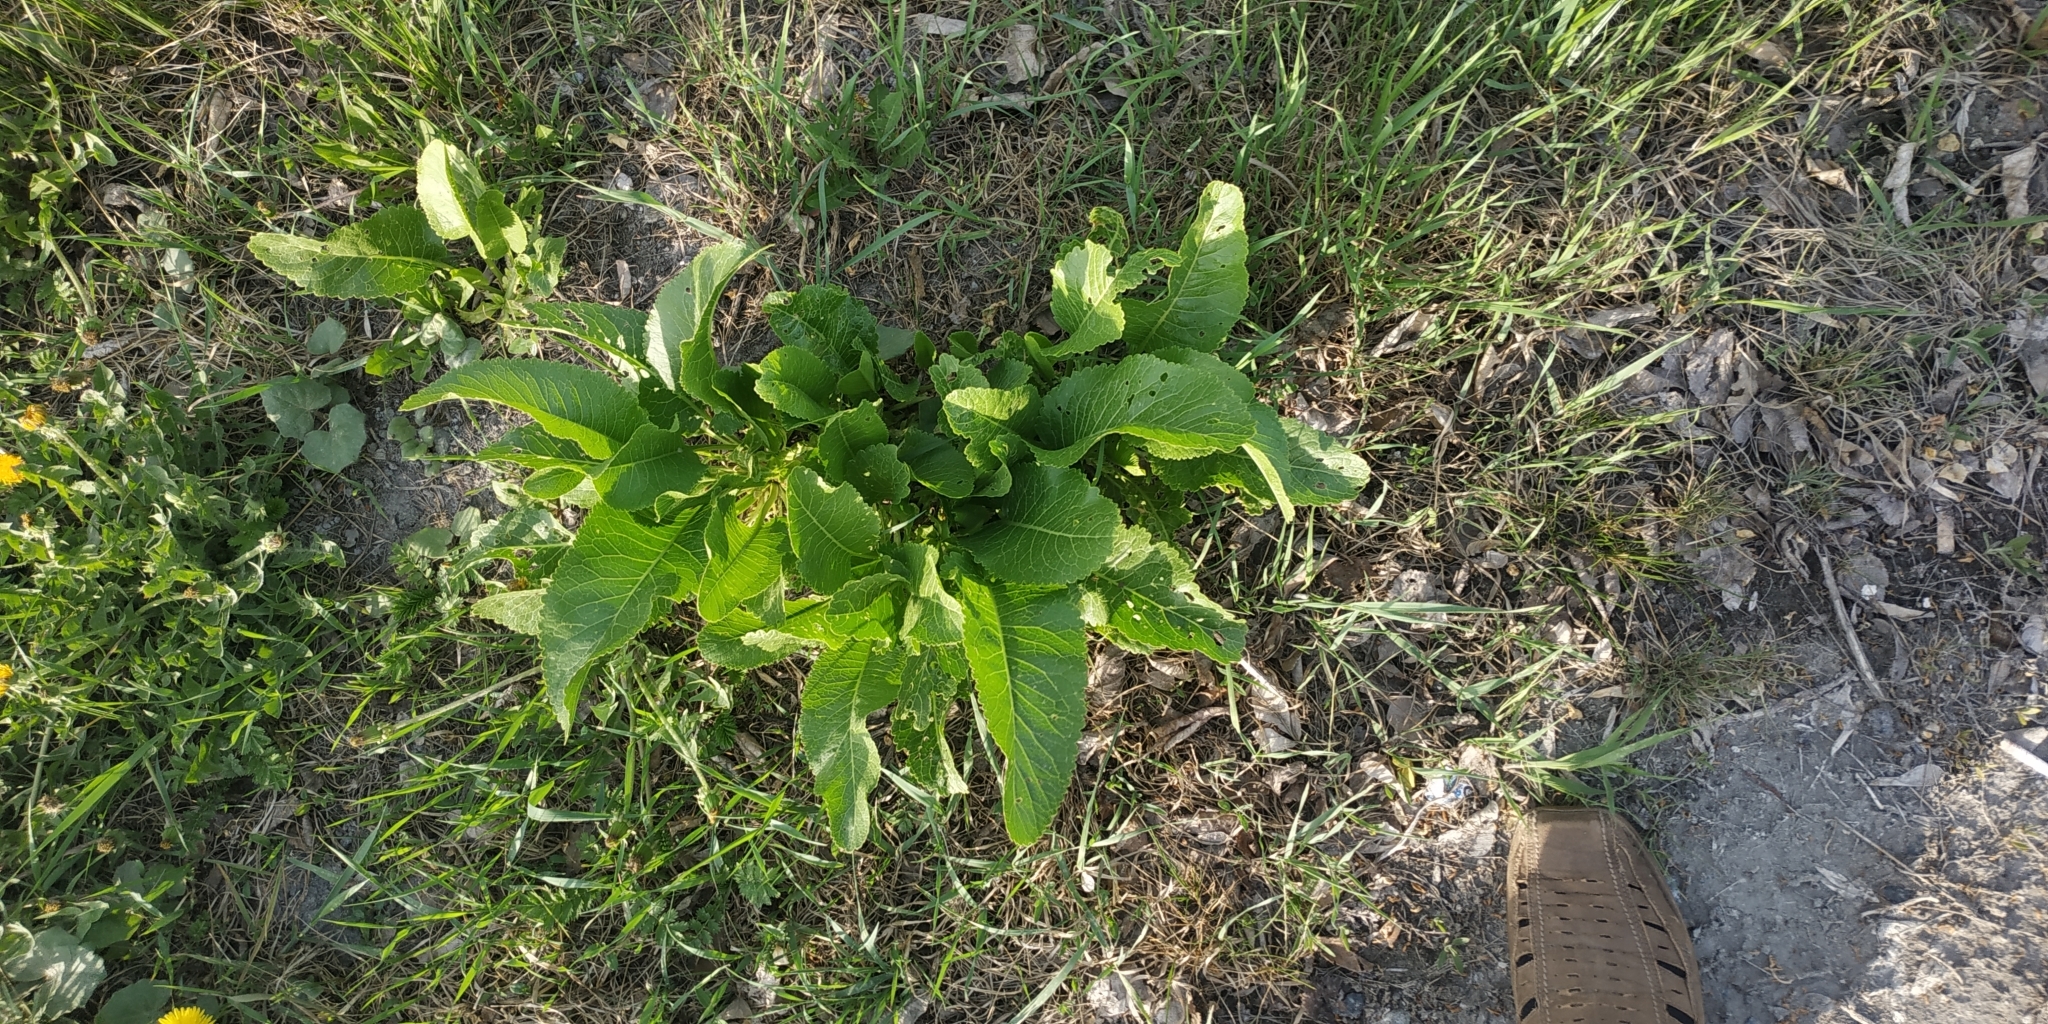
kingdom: Plantae
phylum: Tracheophyta
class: Magnoliopsida
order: Brassicales
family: Brassicaceae
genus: Armoracia
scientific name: Armoracia rusticana
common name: Horseradish
